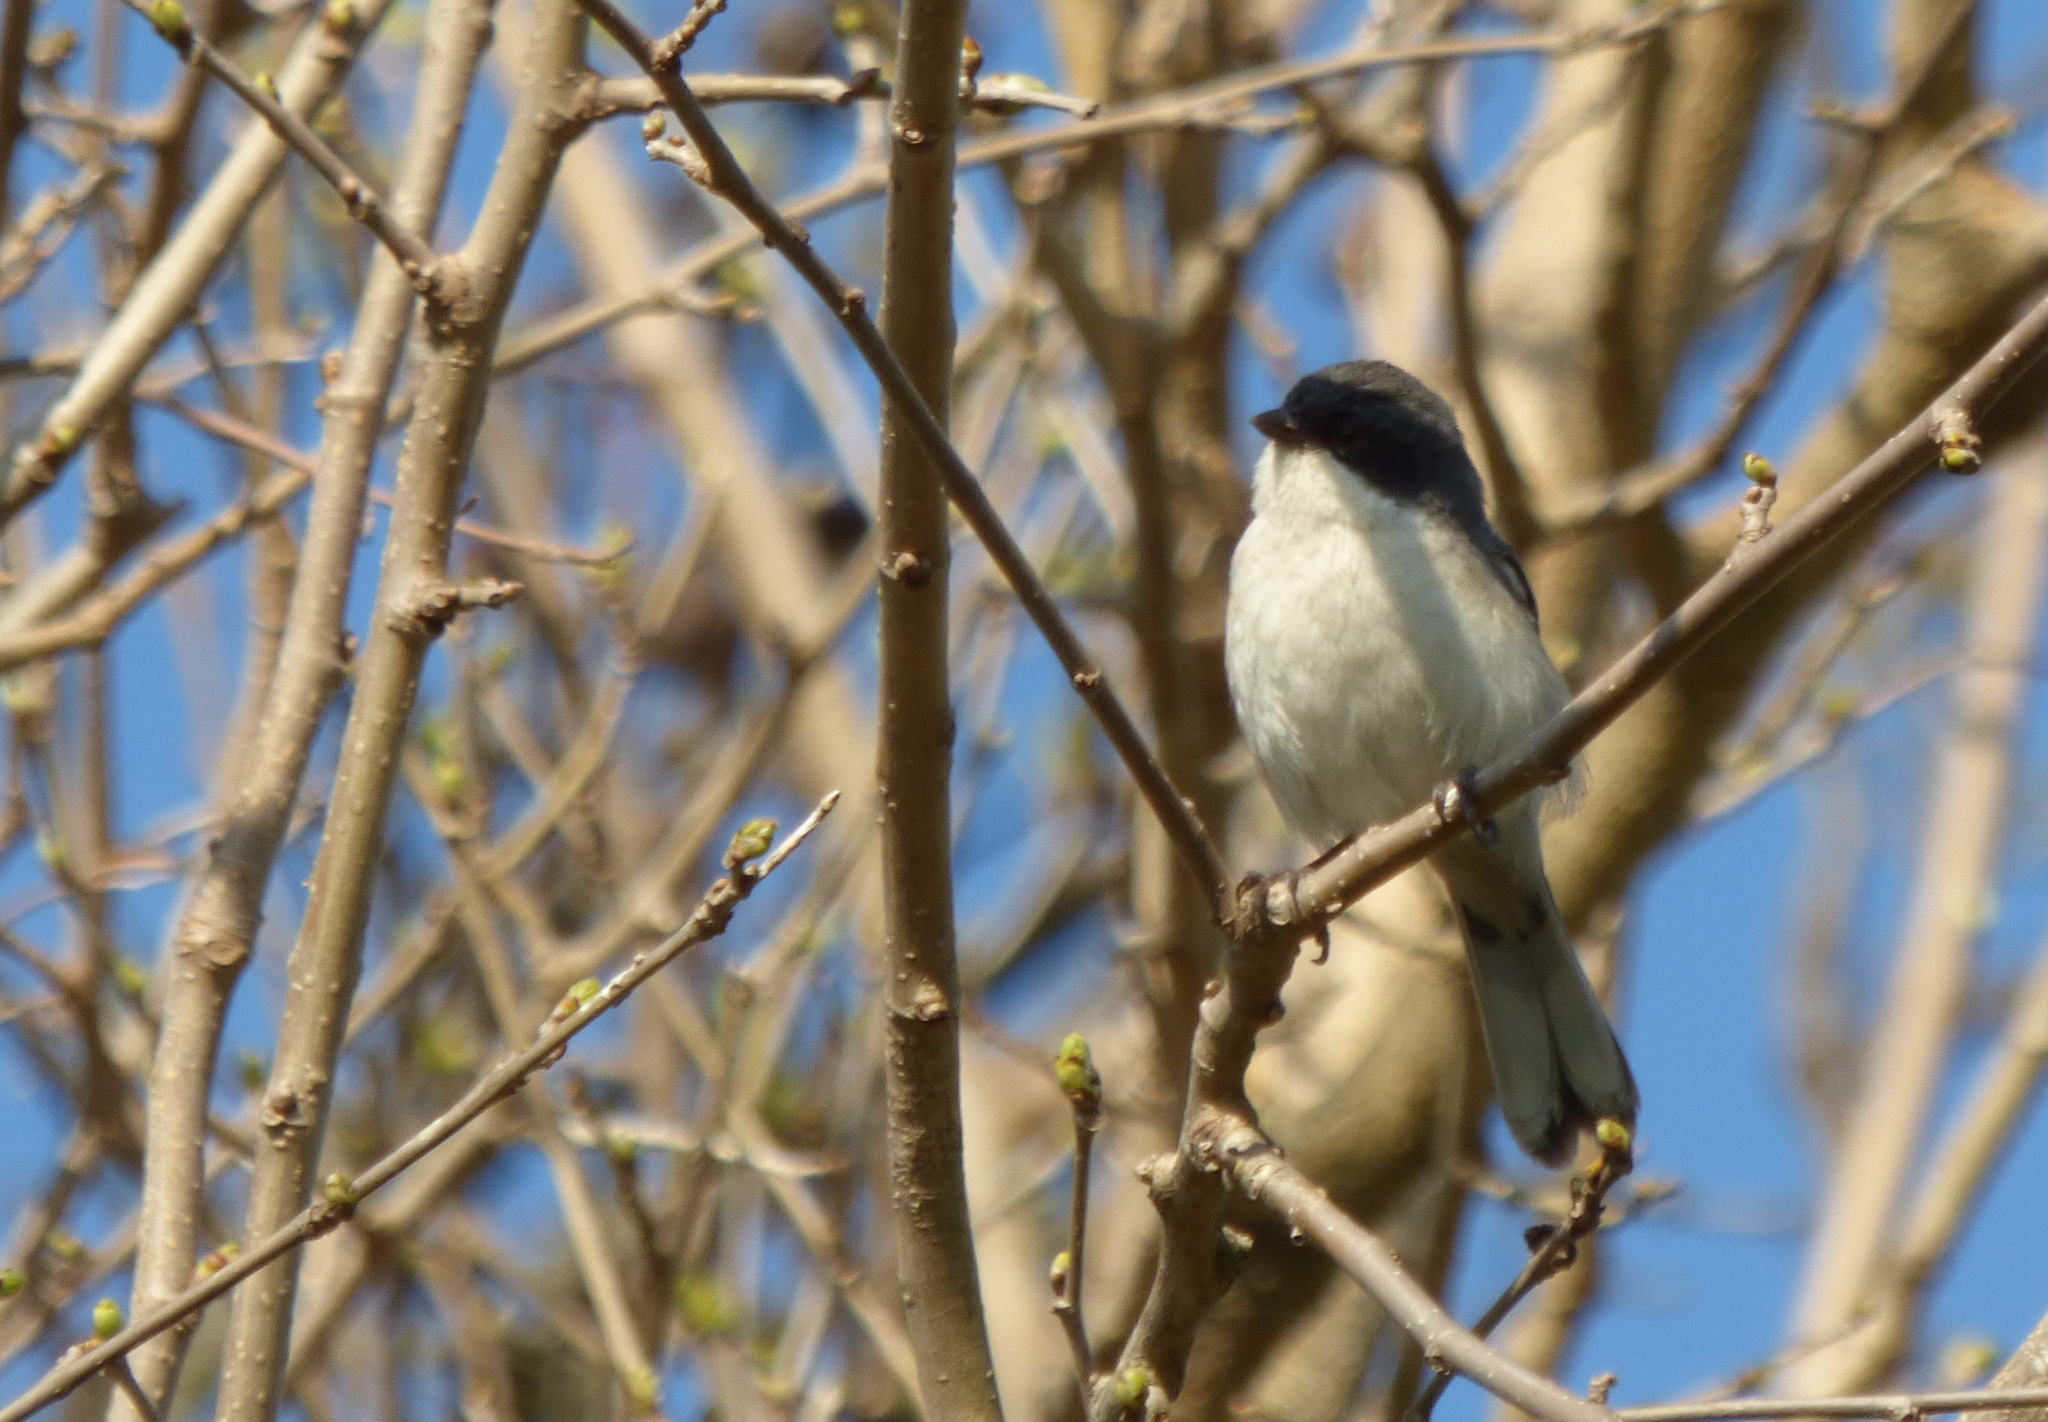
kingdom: Animalia
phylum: Chordata
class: Aves
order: Passeriformes
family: Thraupidae
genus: Microspingus
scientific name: Microspingus melanoleucus
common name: Black-capped warbling-finch
